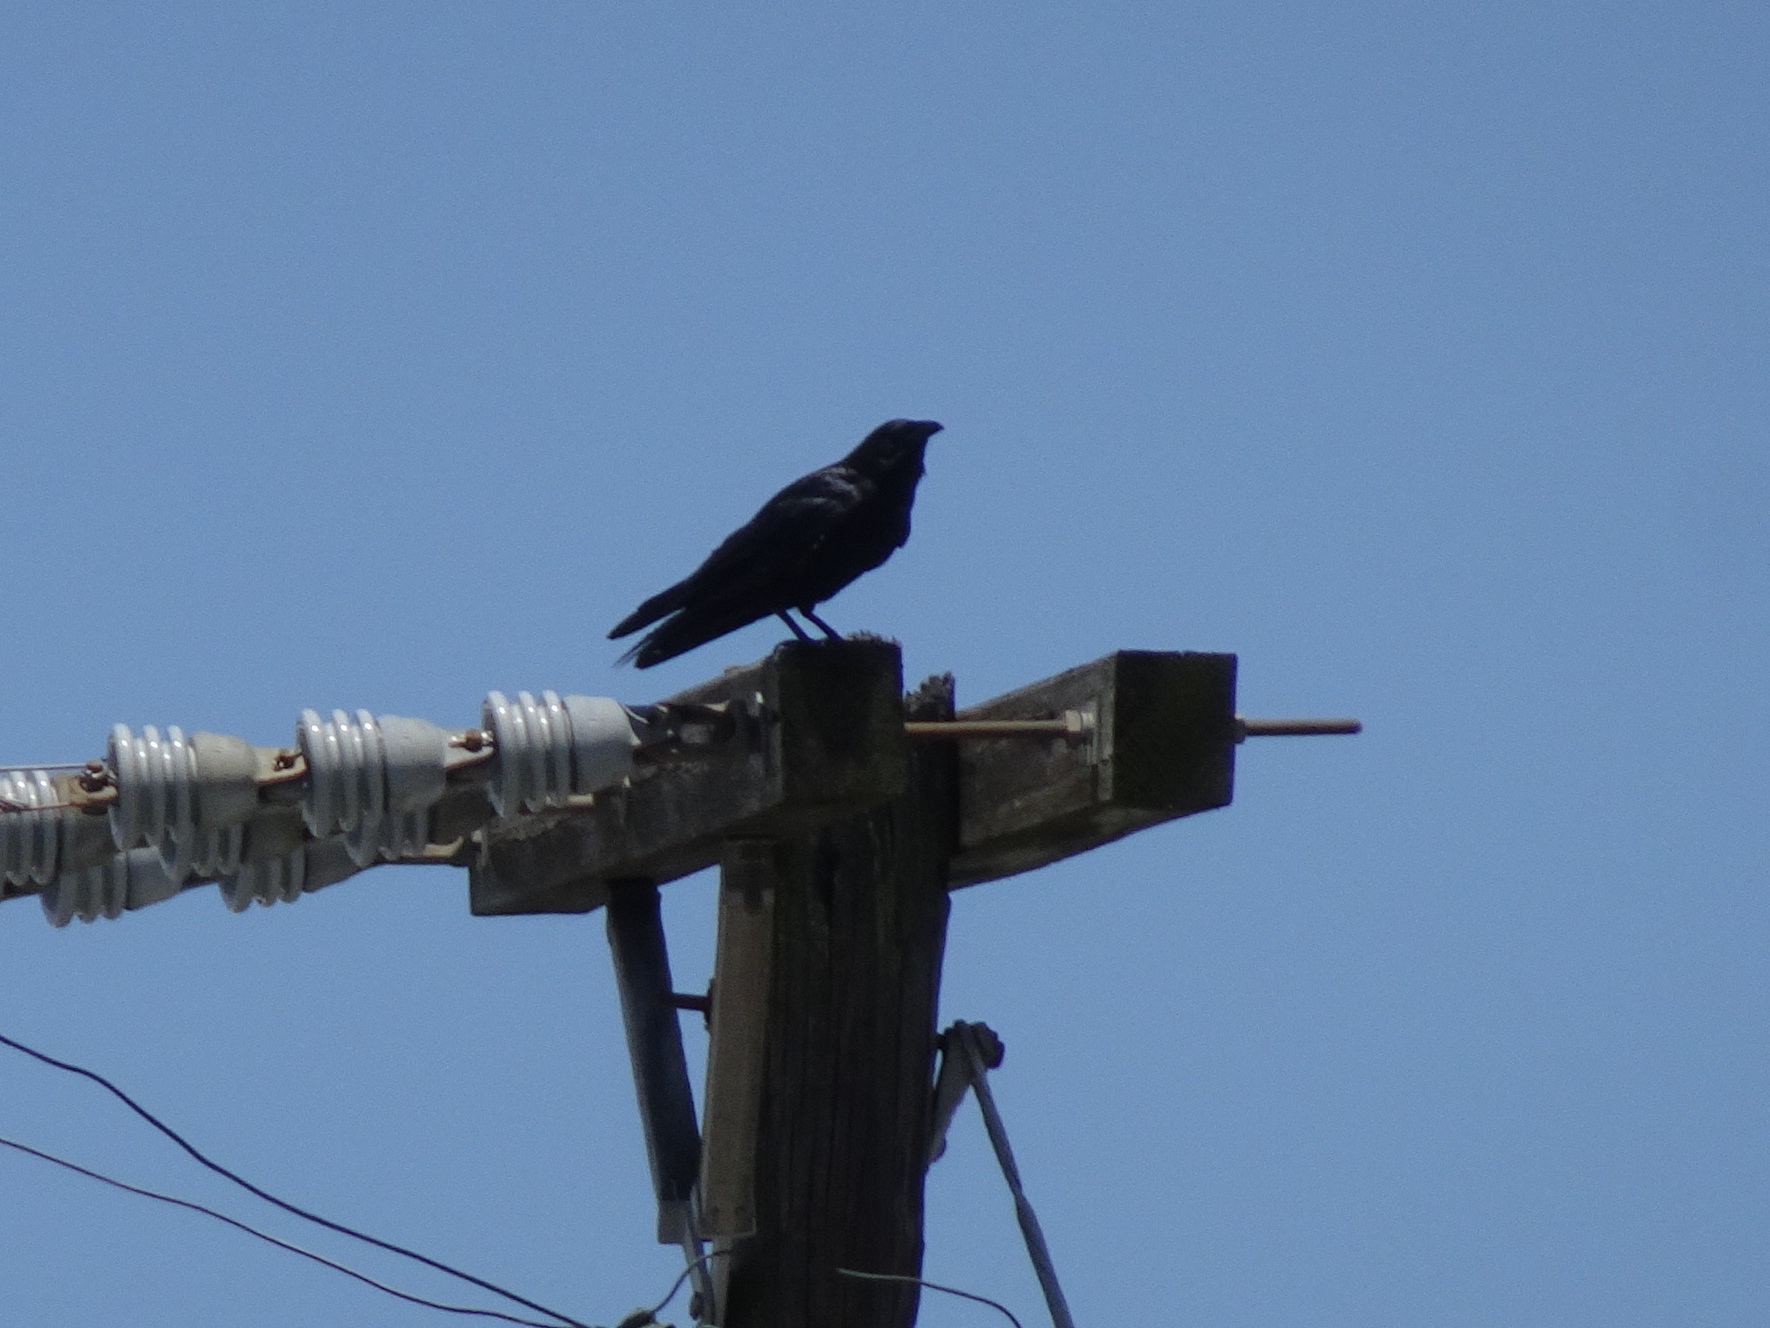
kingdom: Animalia
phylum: Chordata
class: Aves
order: Passeriformes
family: Corvidae
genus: Corvus
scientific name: Corvus ossifragus
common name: Fish crow
